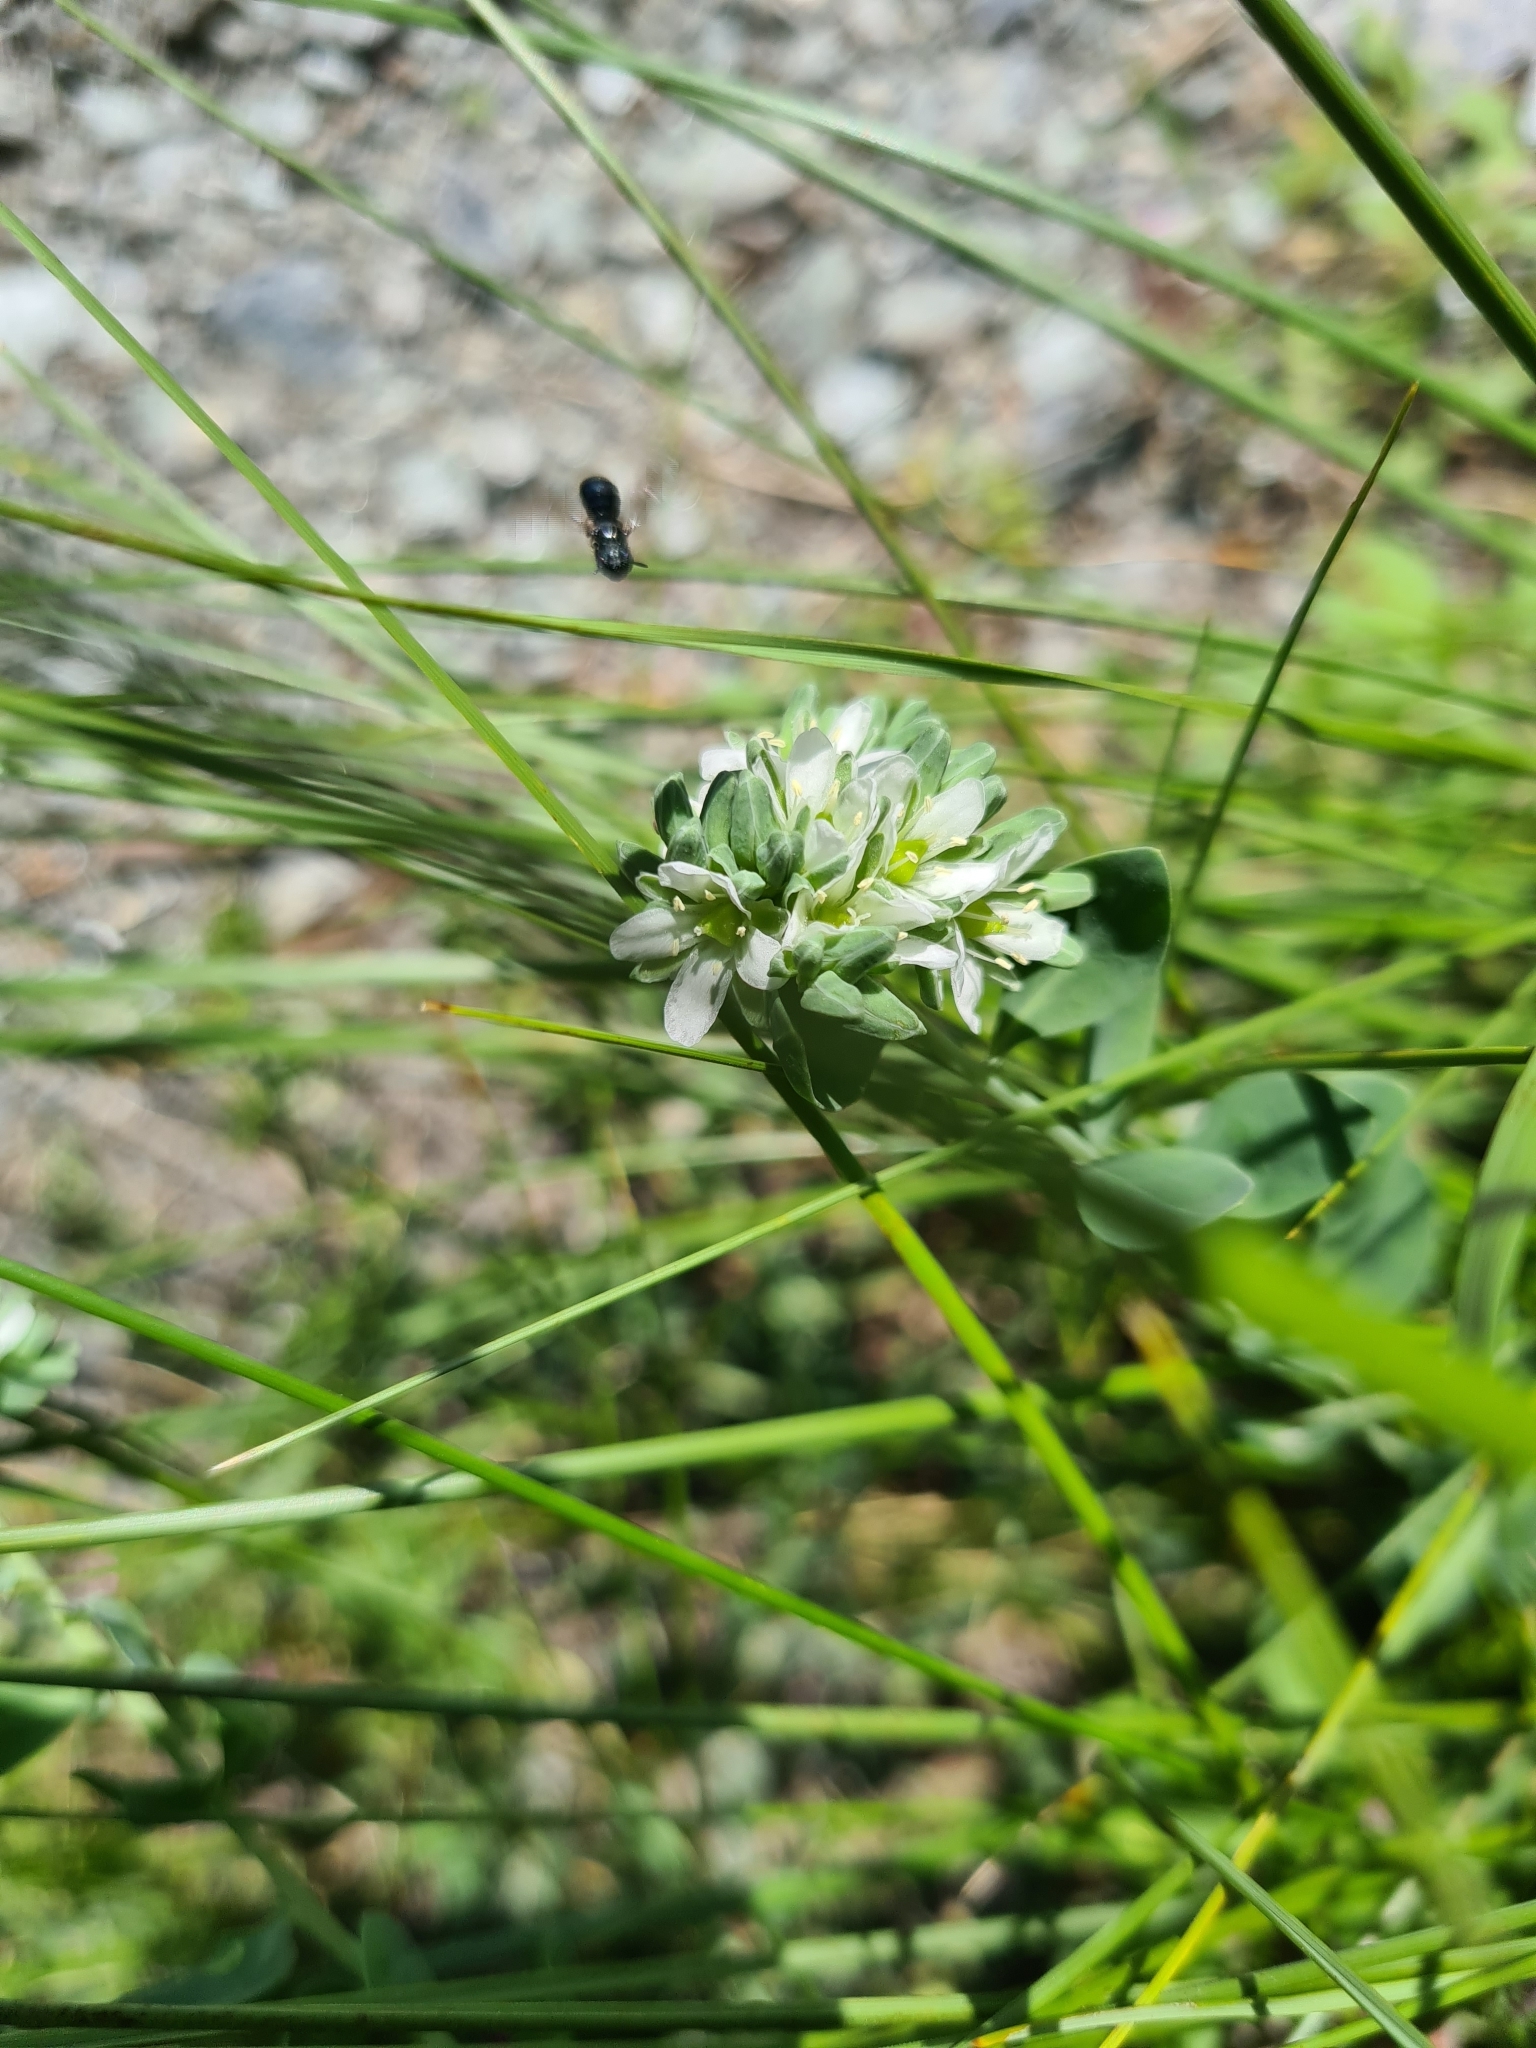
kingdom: Plantae
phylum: Tracheophyta
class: Magnoliopsida
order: Caryophyllales
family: Caryophyllaceae
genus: Telephium
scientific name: Telephium imperati
